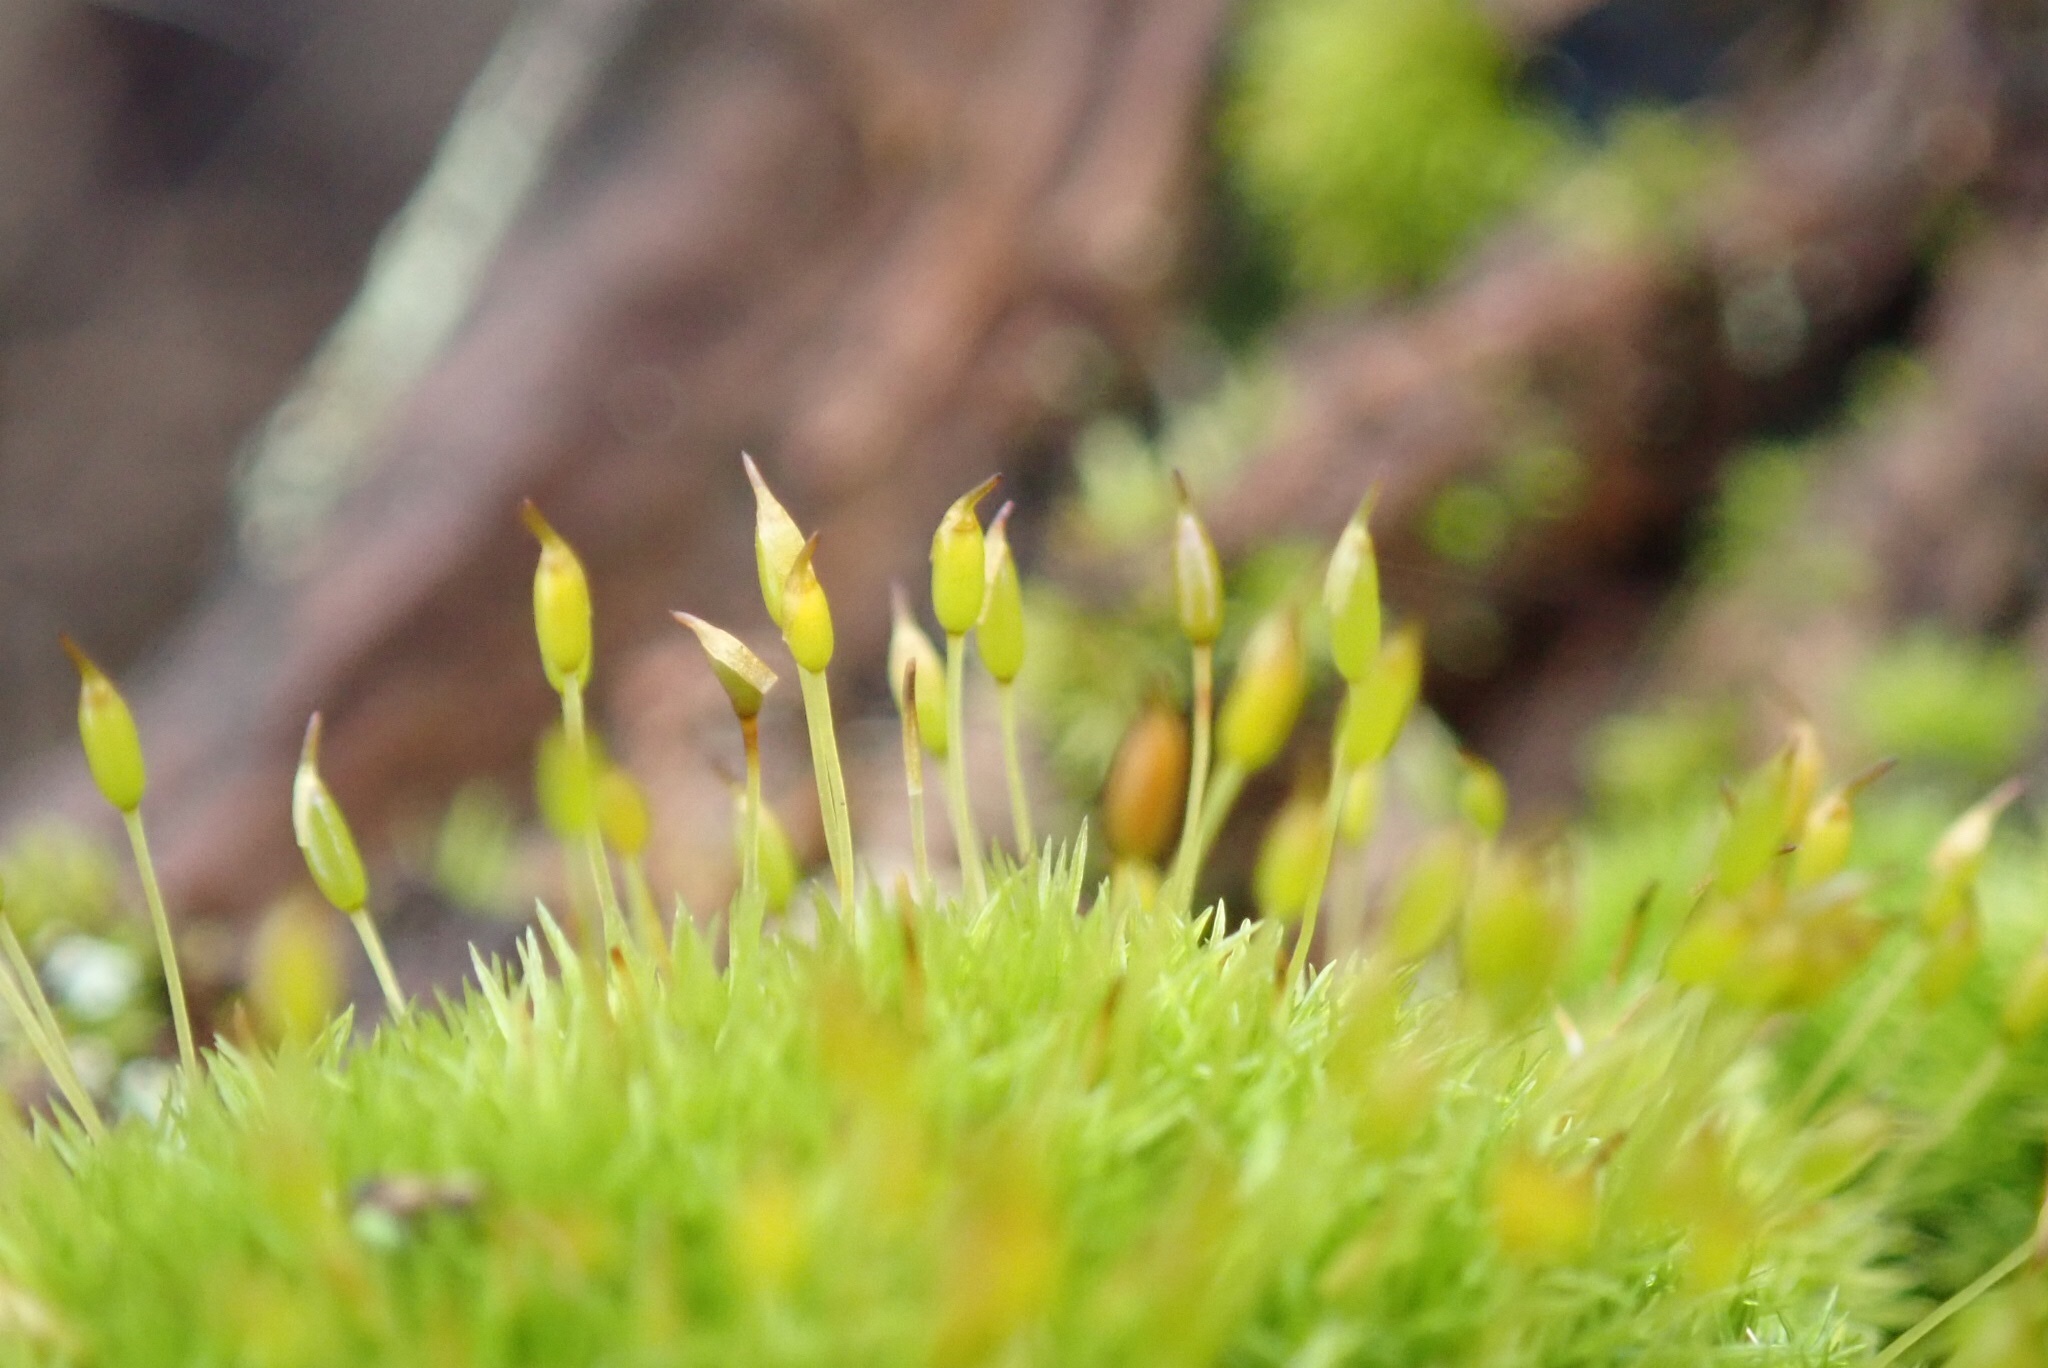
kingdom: Plantae
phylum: Bryophyta
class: Bryopsida
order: Dicranales
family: Rhabdoweisiaceae
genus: Dicranoweisia
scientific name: Dicranoweisia cirrata
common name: Common pincushion
